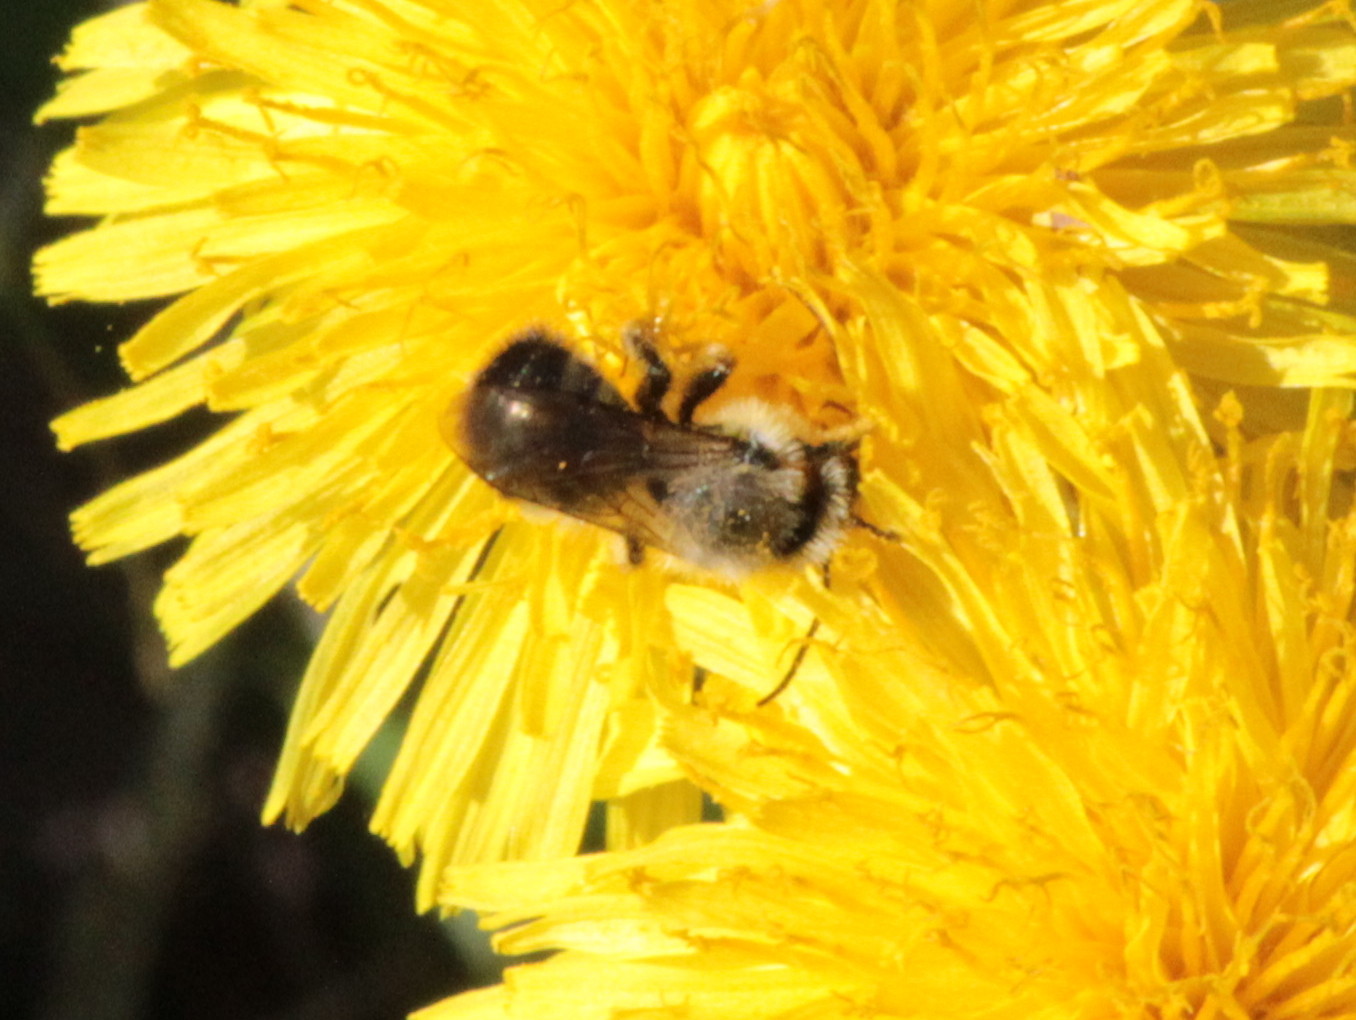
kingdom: Animalia
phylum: Arthropoda
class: Insecta
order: Hymenoptera
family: Megachilidae
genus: Osmia
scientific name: Osmia bucephala
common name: Bufflehead mason bee
